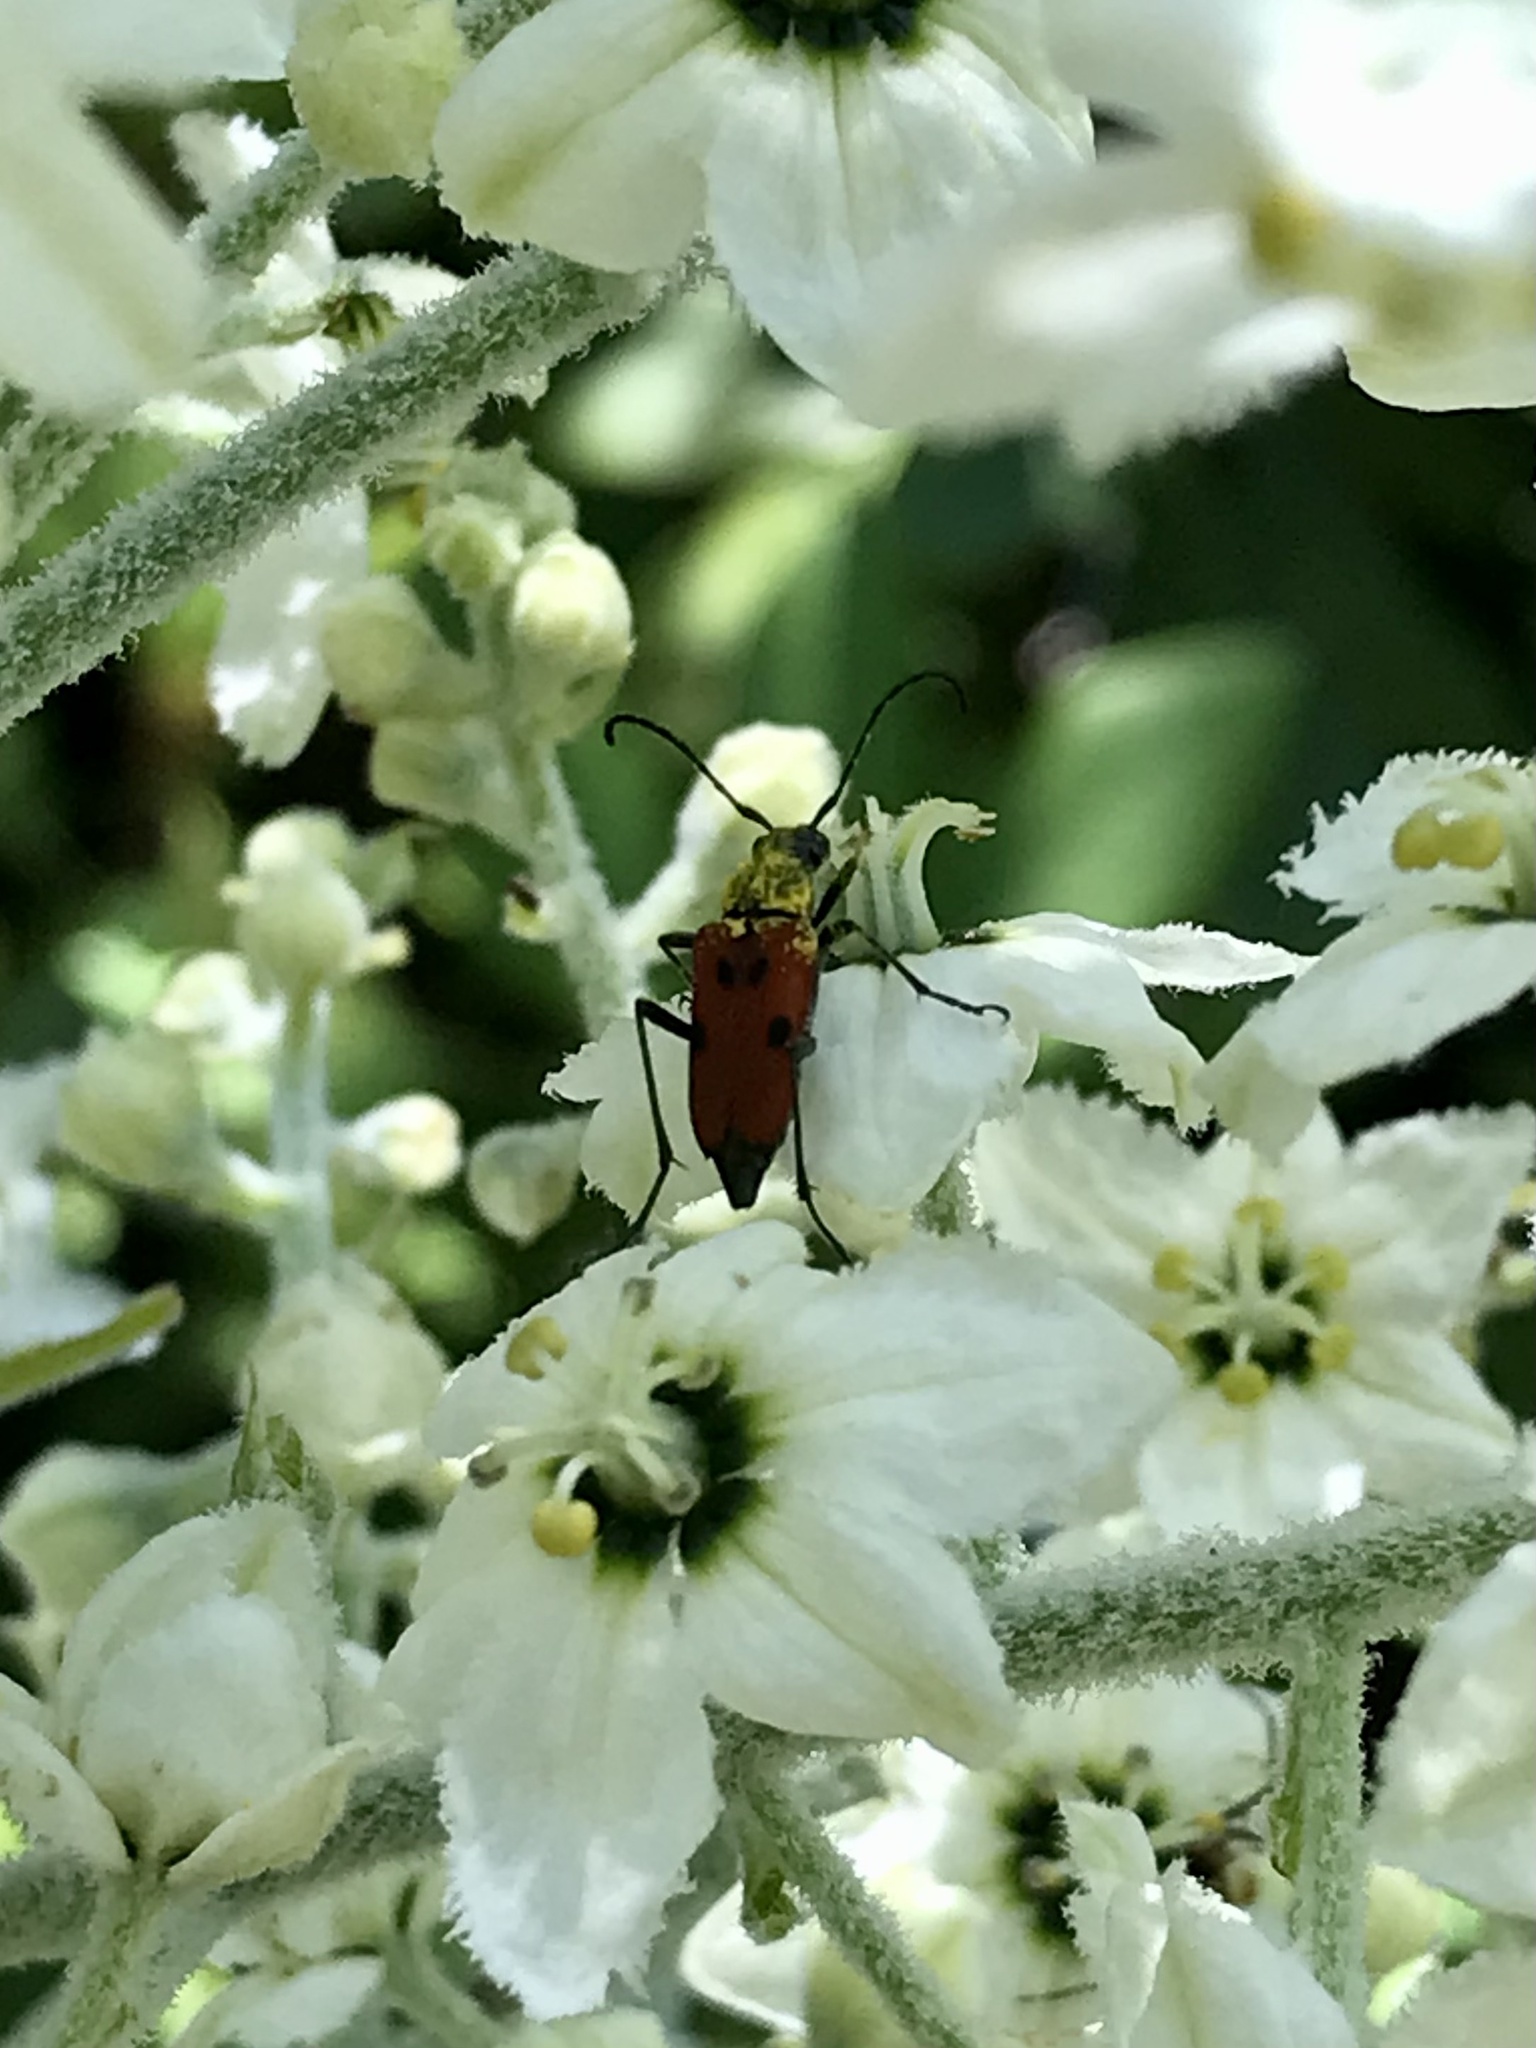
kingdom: Animalia
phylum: Arthropoda
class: Insecta
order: Coleoptera
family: Cerambycidae
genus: Anastrangalia
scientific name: Anastrangalia laetifica
